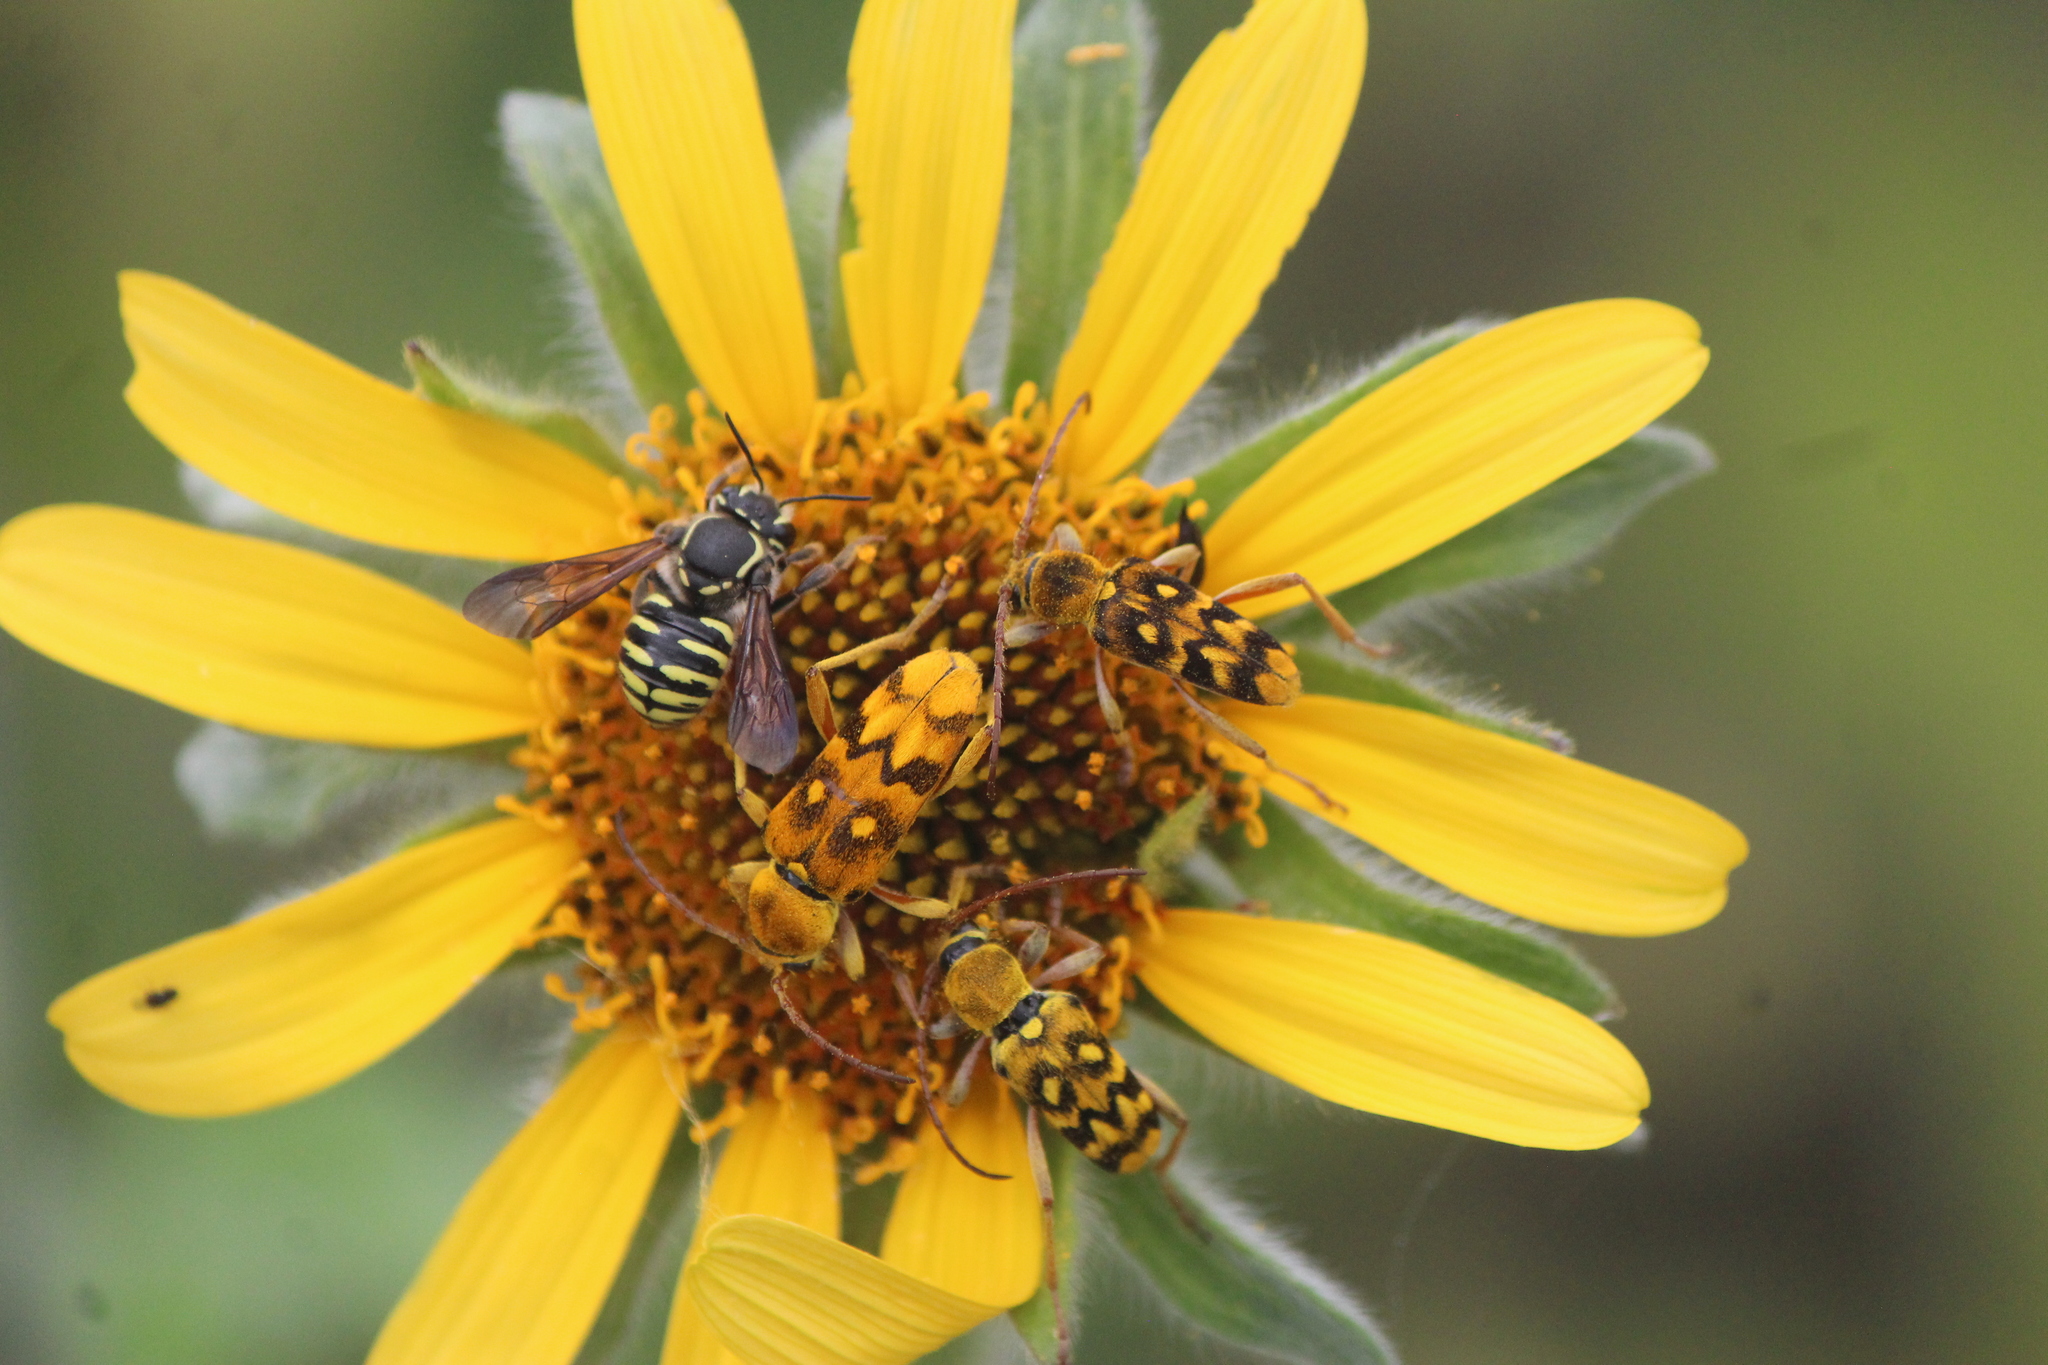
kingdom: Animalia
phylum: Arthropoda
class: Insecta
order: Coleoptera
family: Cerambycidae
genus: Ochraethes
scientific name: Ochraethes sommeri
